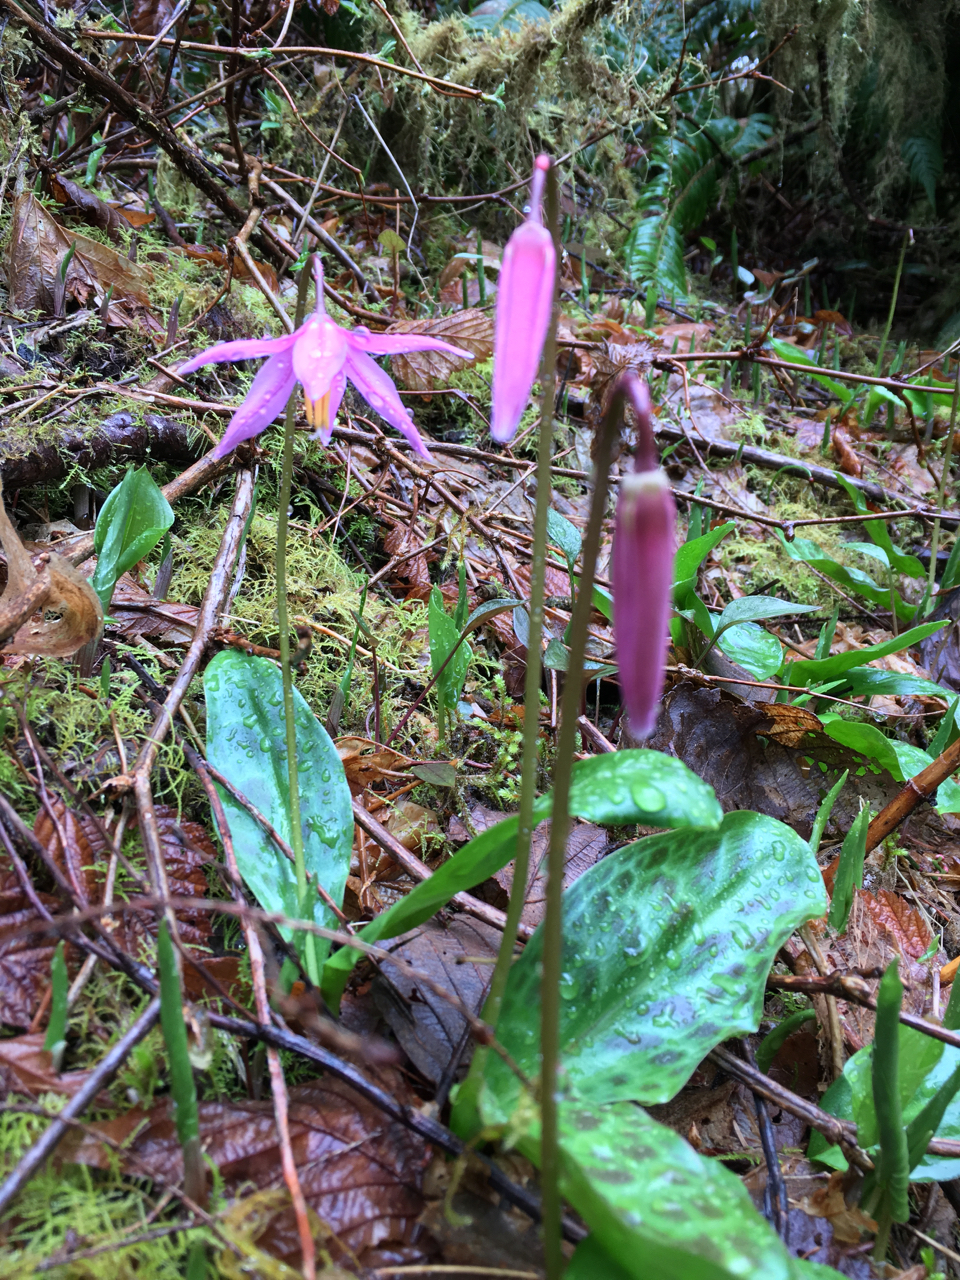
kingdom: Plantae
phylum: Tracheophyta
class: Liliopsida
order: Liliales
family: Liliaceae
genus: Erythronium
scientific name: Erythronium revolutum
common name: Pink fawn-lily
